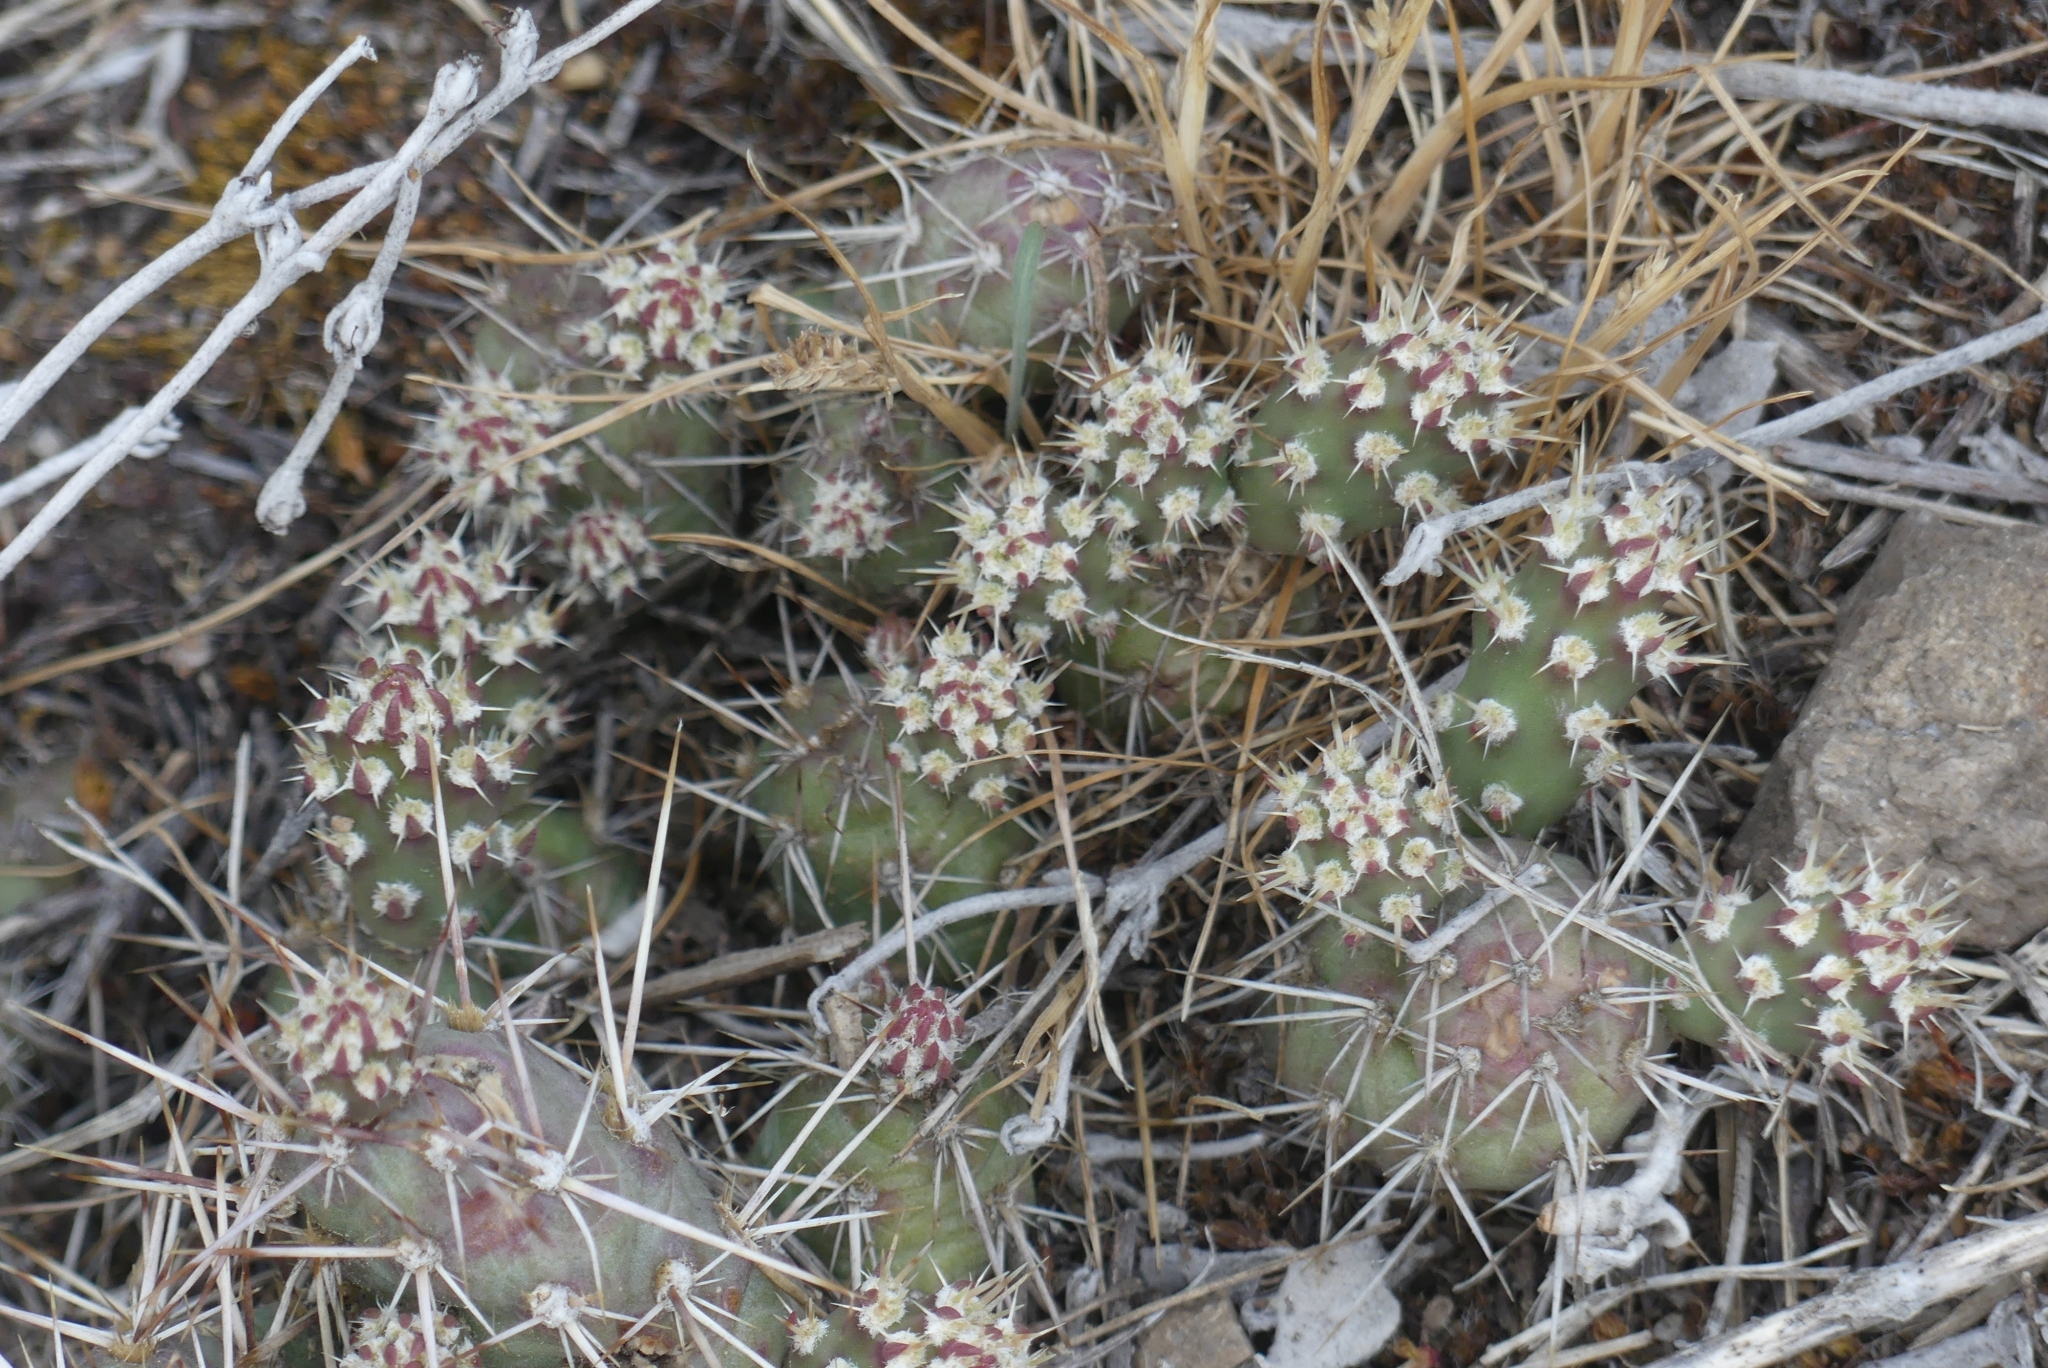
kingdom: Plantae
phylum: Tracheophyta
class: Magnoliopsida
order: Caryophyllales
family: Cactaceae
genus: Opuntia
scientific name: Opuntia fragilis
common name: Brittle cactus
